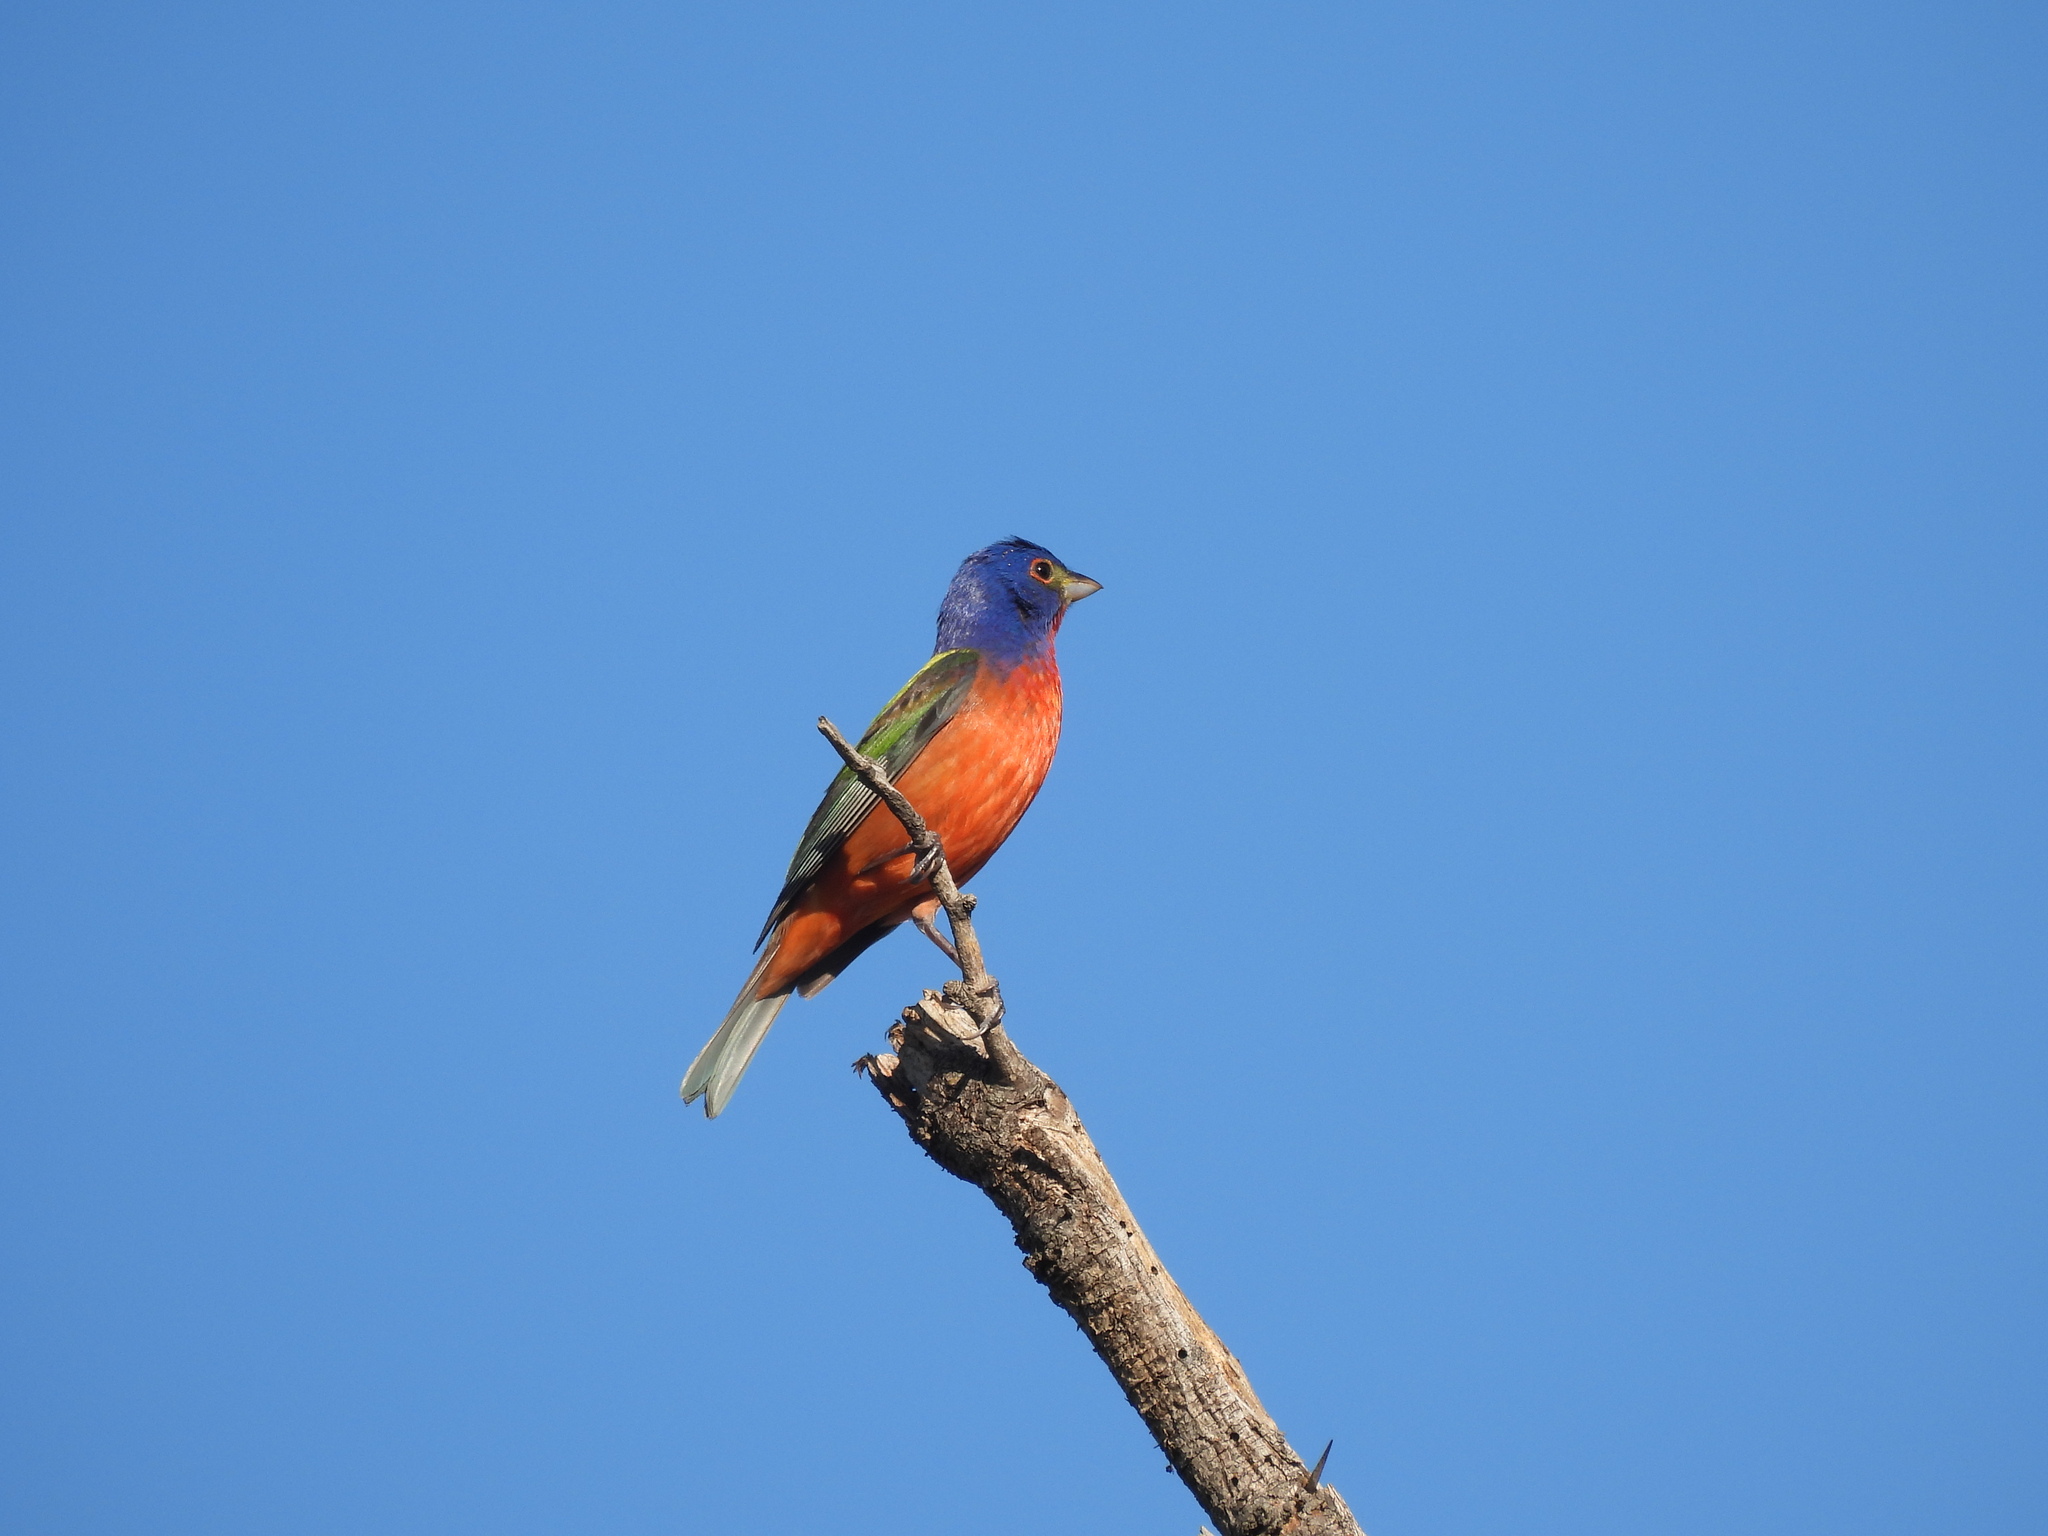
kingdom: Animalia
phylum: Chordata
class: Aves
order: Passeriformes
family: Cardinalidae
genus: Passerina
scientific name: Passerina ciris
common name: Painted bunting
